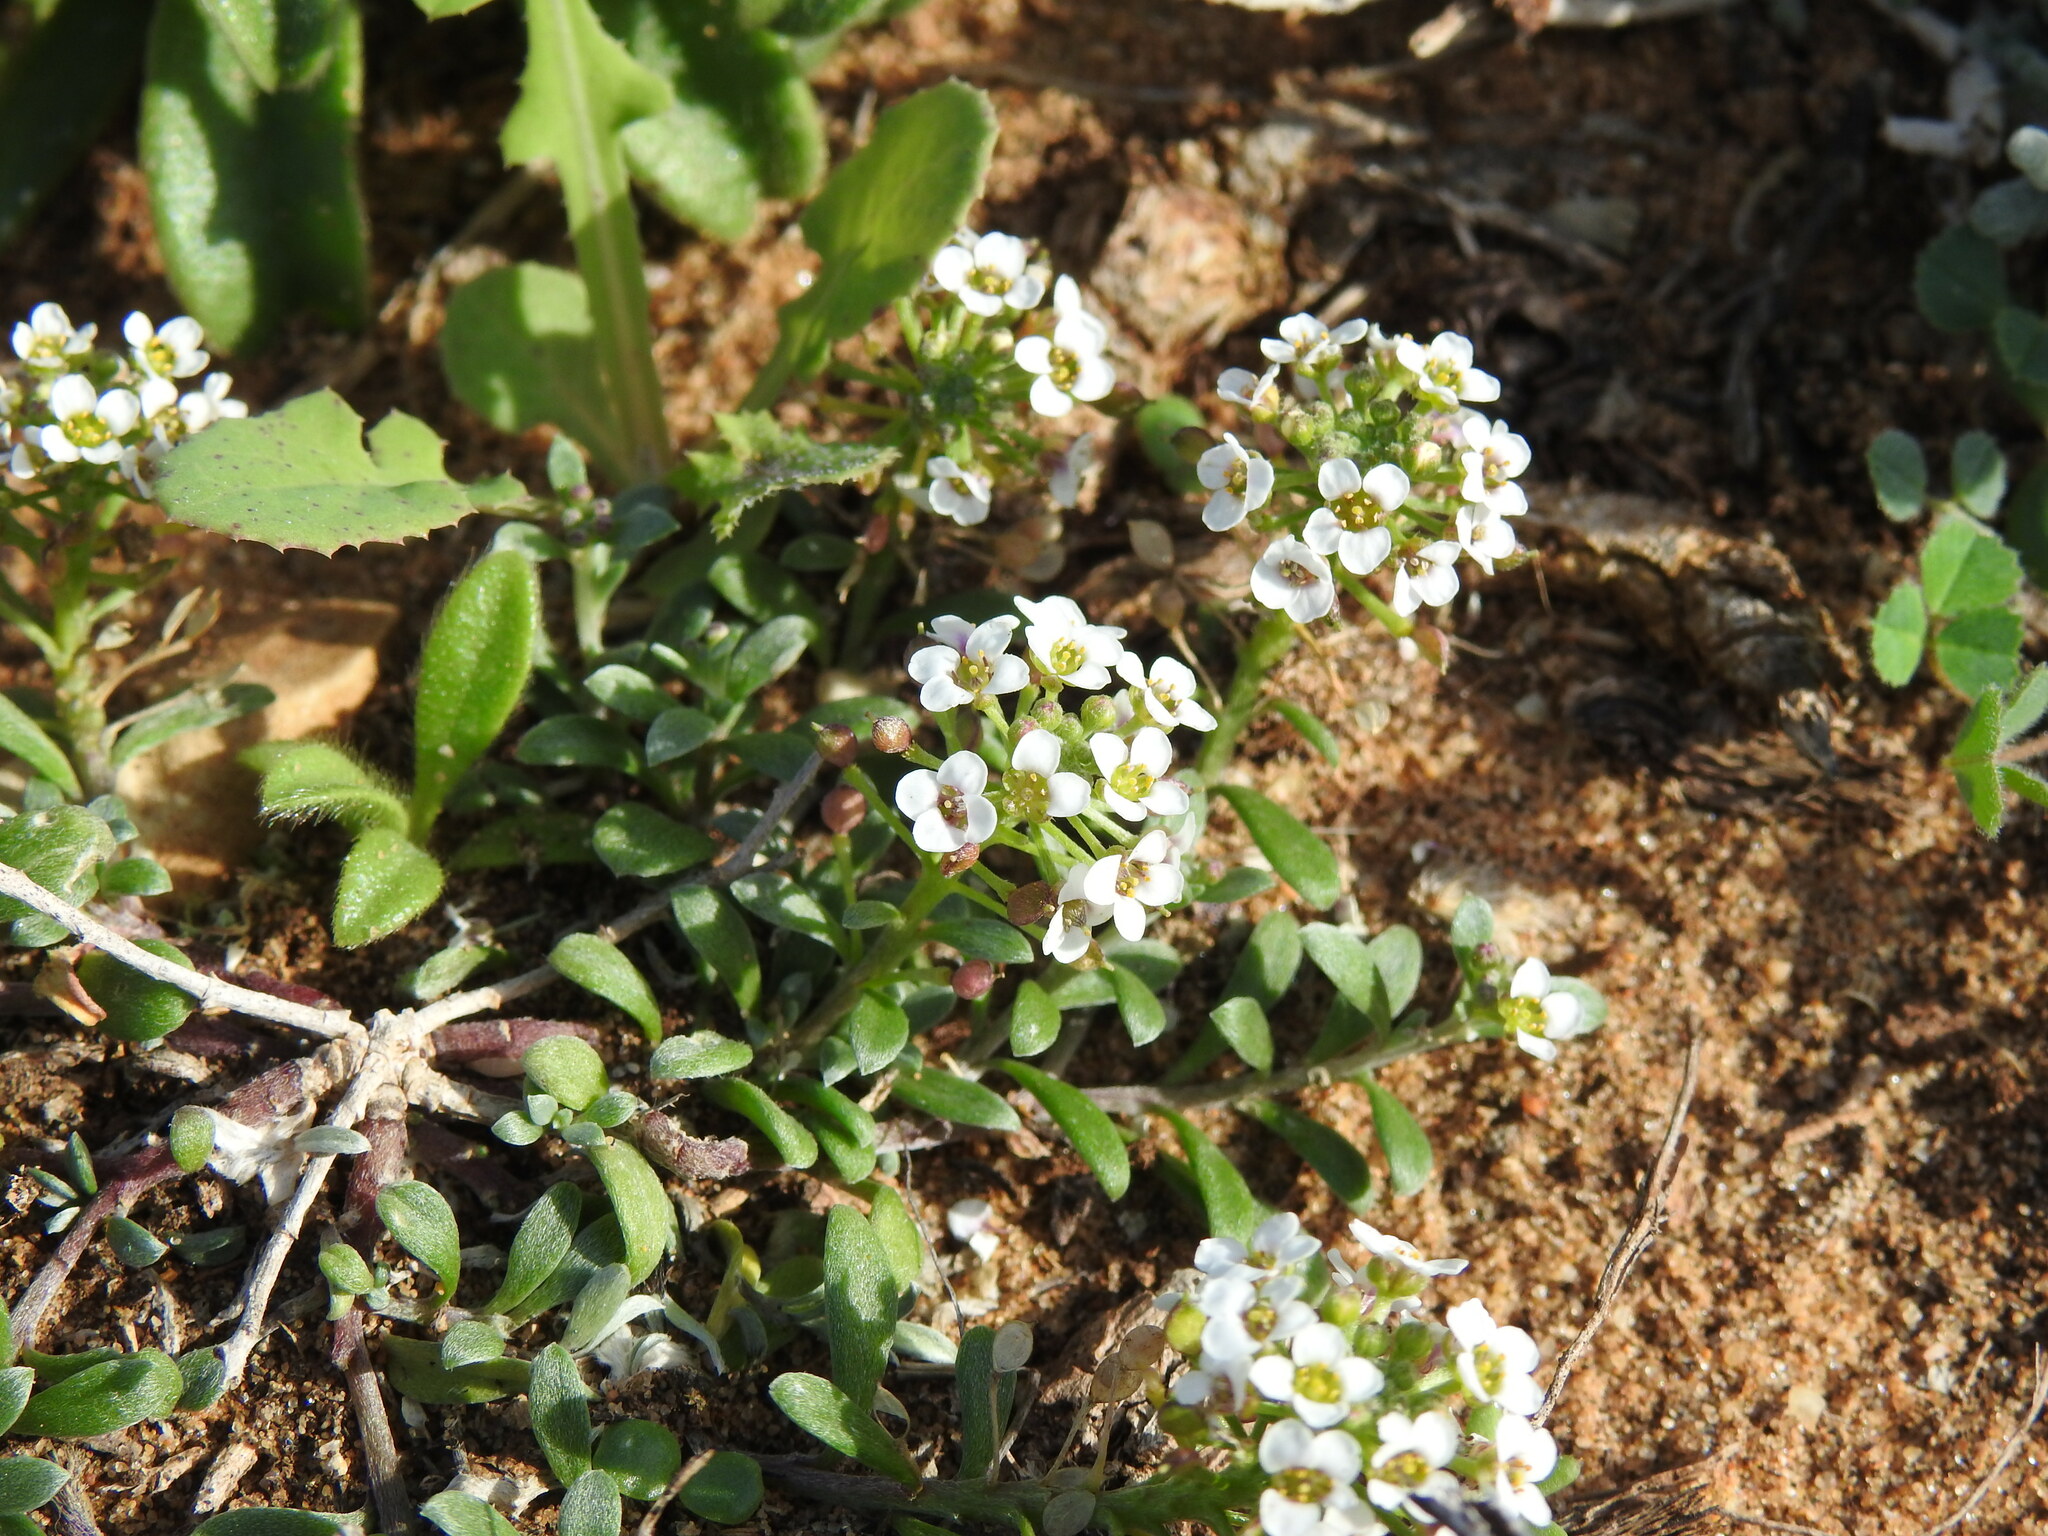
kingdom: Plantae
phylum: Tracheophyta
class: Magnoliopsida
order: Brassicales
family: Brassicaceae
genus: Lobularia
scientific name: Lobularia maritima
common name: Sweet alison
